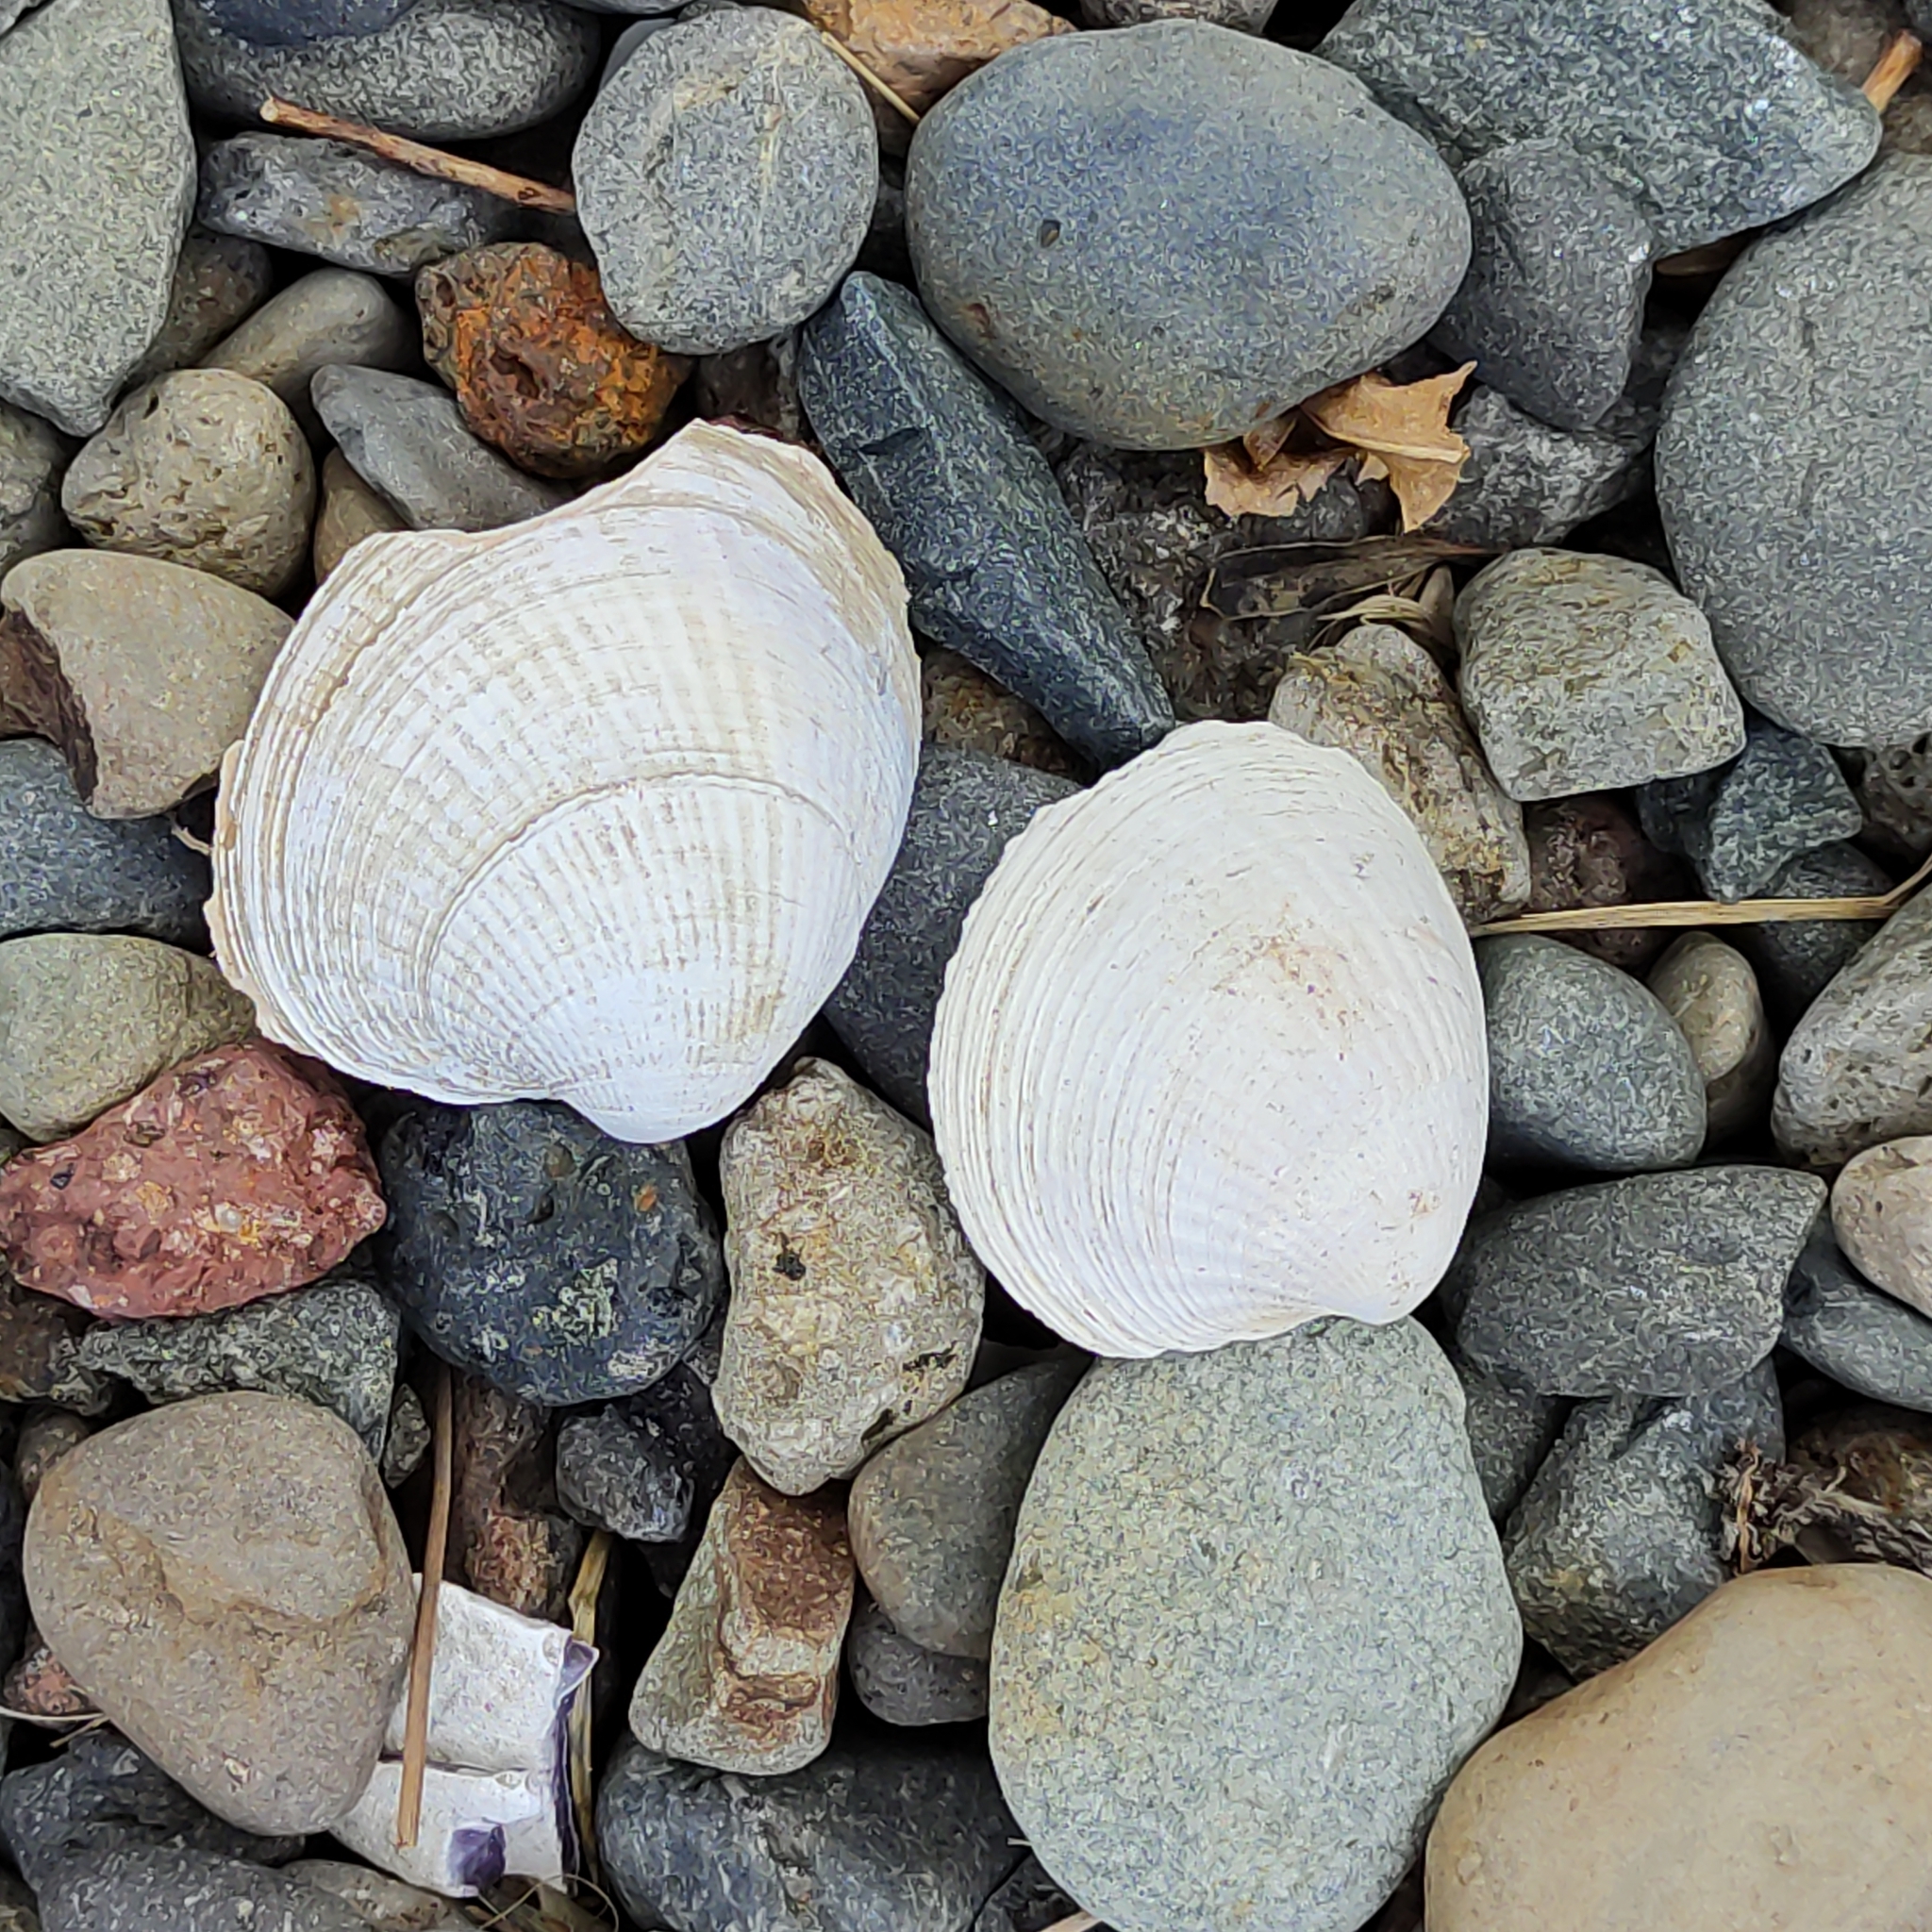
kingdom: Animalia
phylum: Mollusca
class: Bivalvia
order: Venerida
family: Veneridae
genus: Austrovenus
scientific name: Austrovenus stutchburyi
